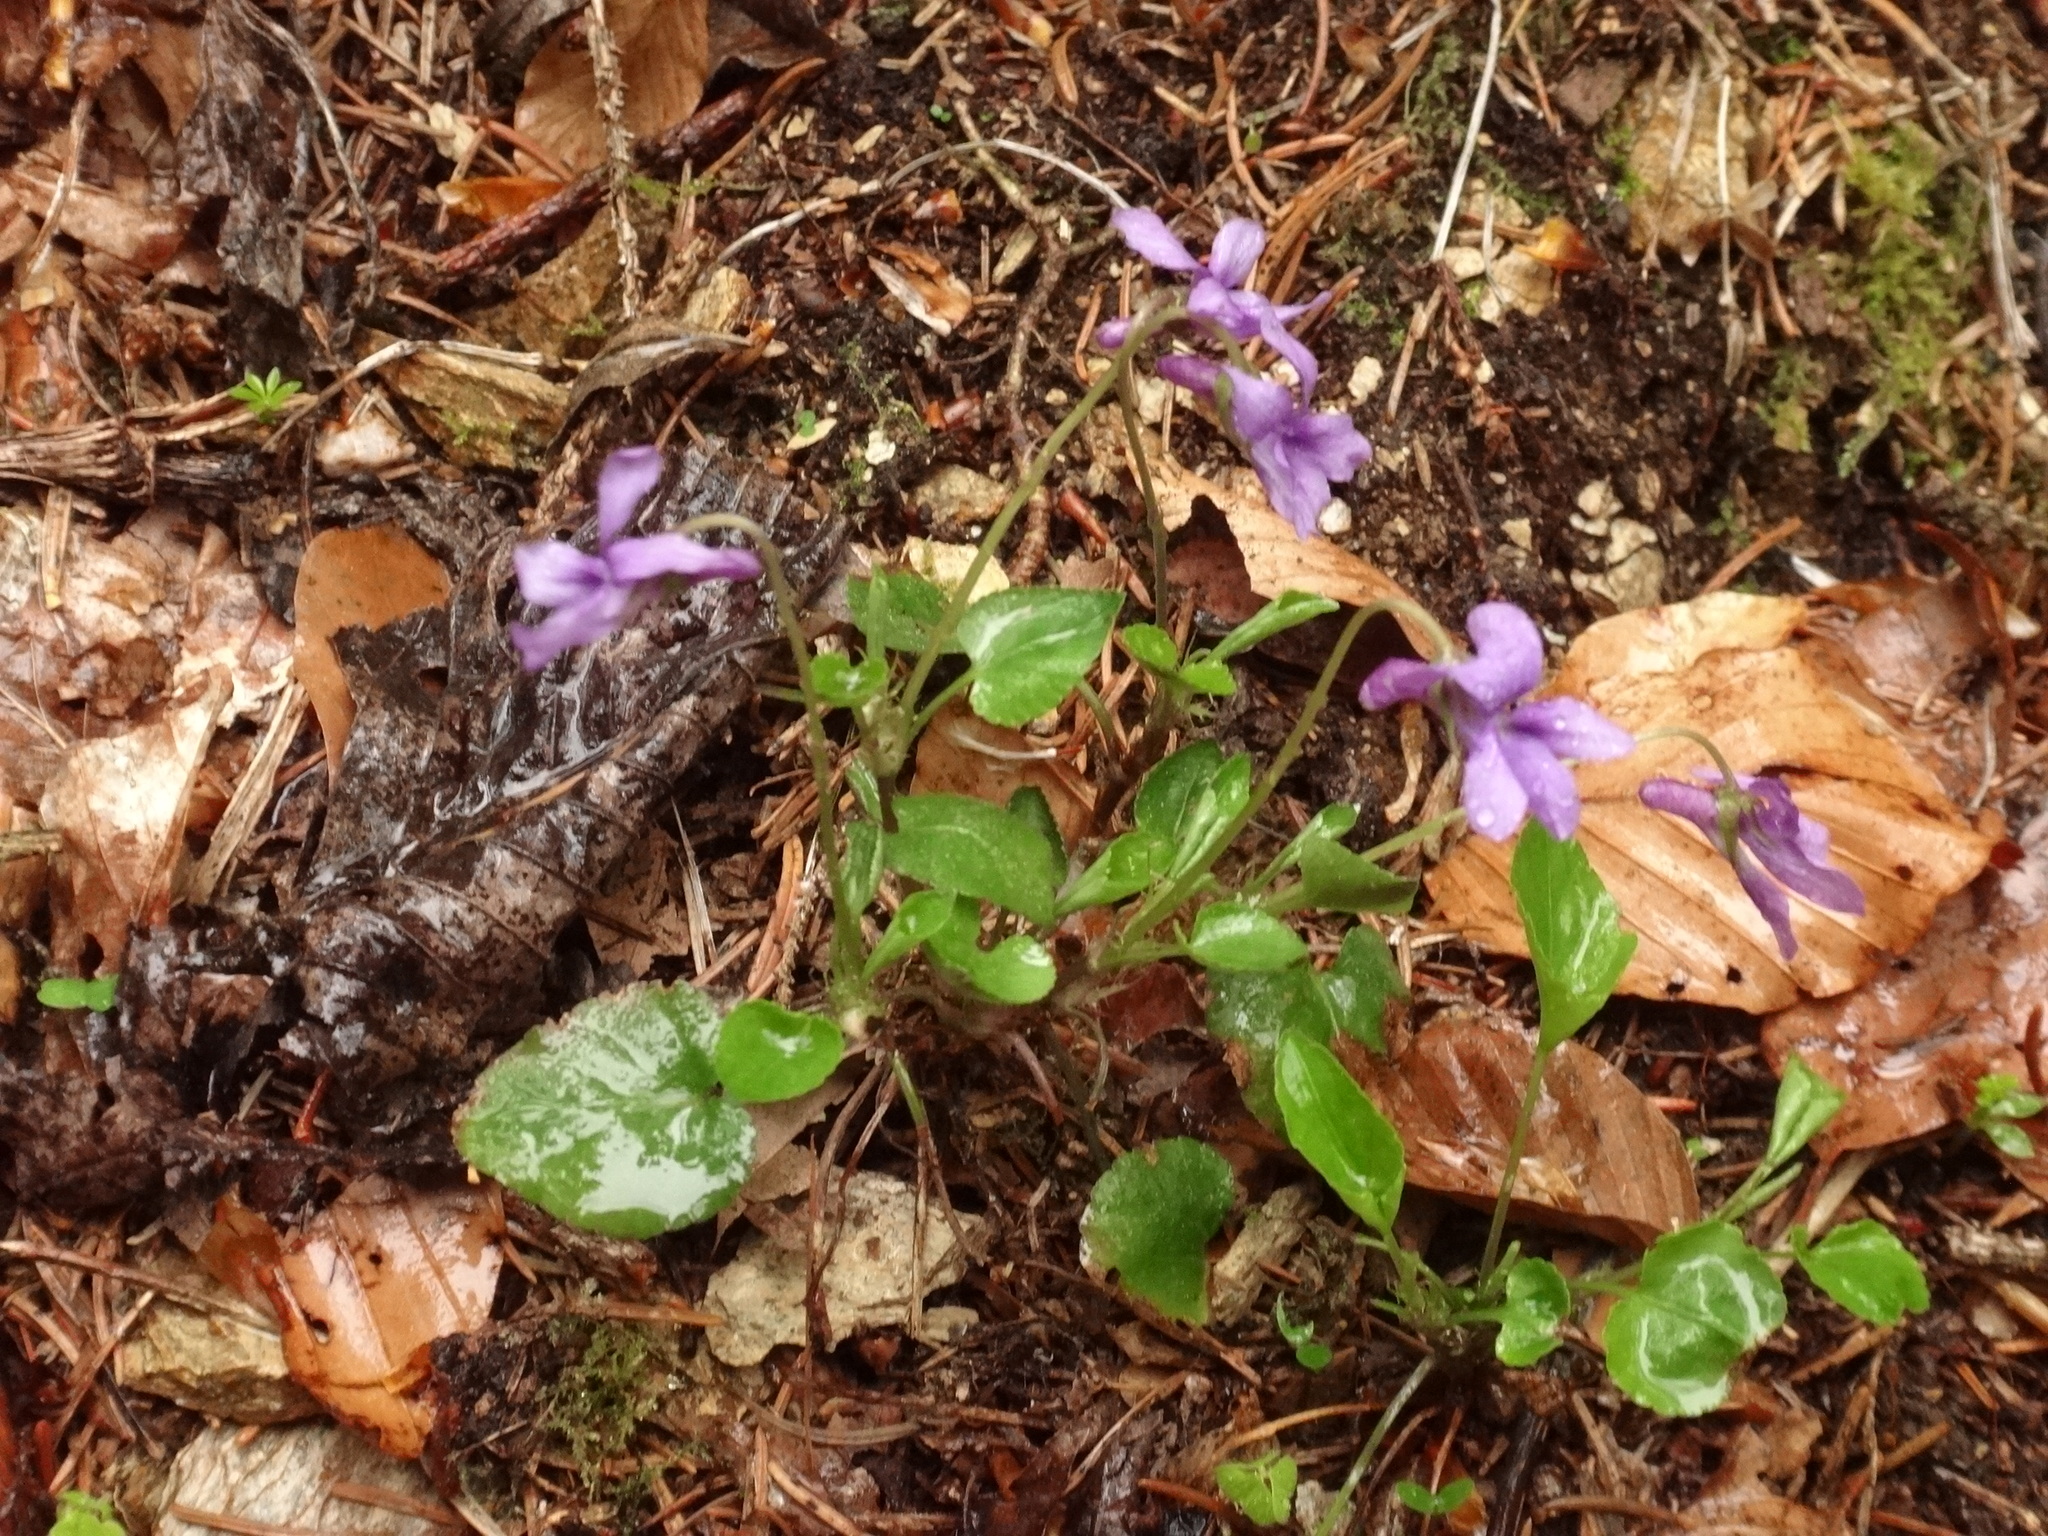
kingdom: Plantae
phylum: Tracheophyta
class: Magnoliopsida
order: Malpighiales
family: Violaceae
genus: Viola
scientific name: Viola reichenbachiana
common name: Early dog-violet
